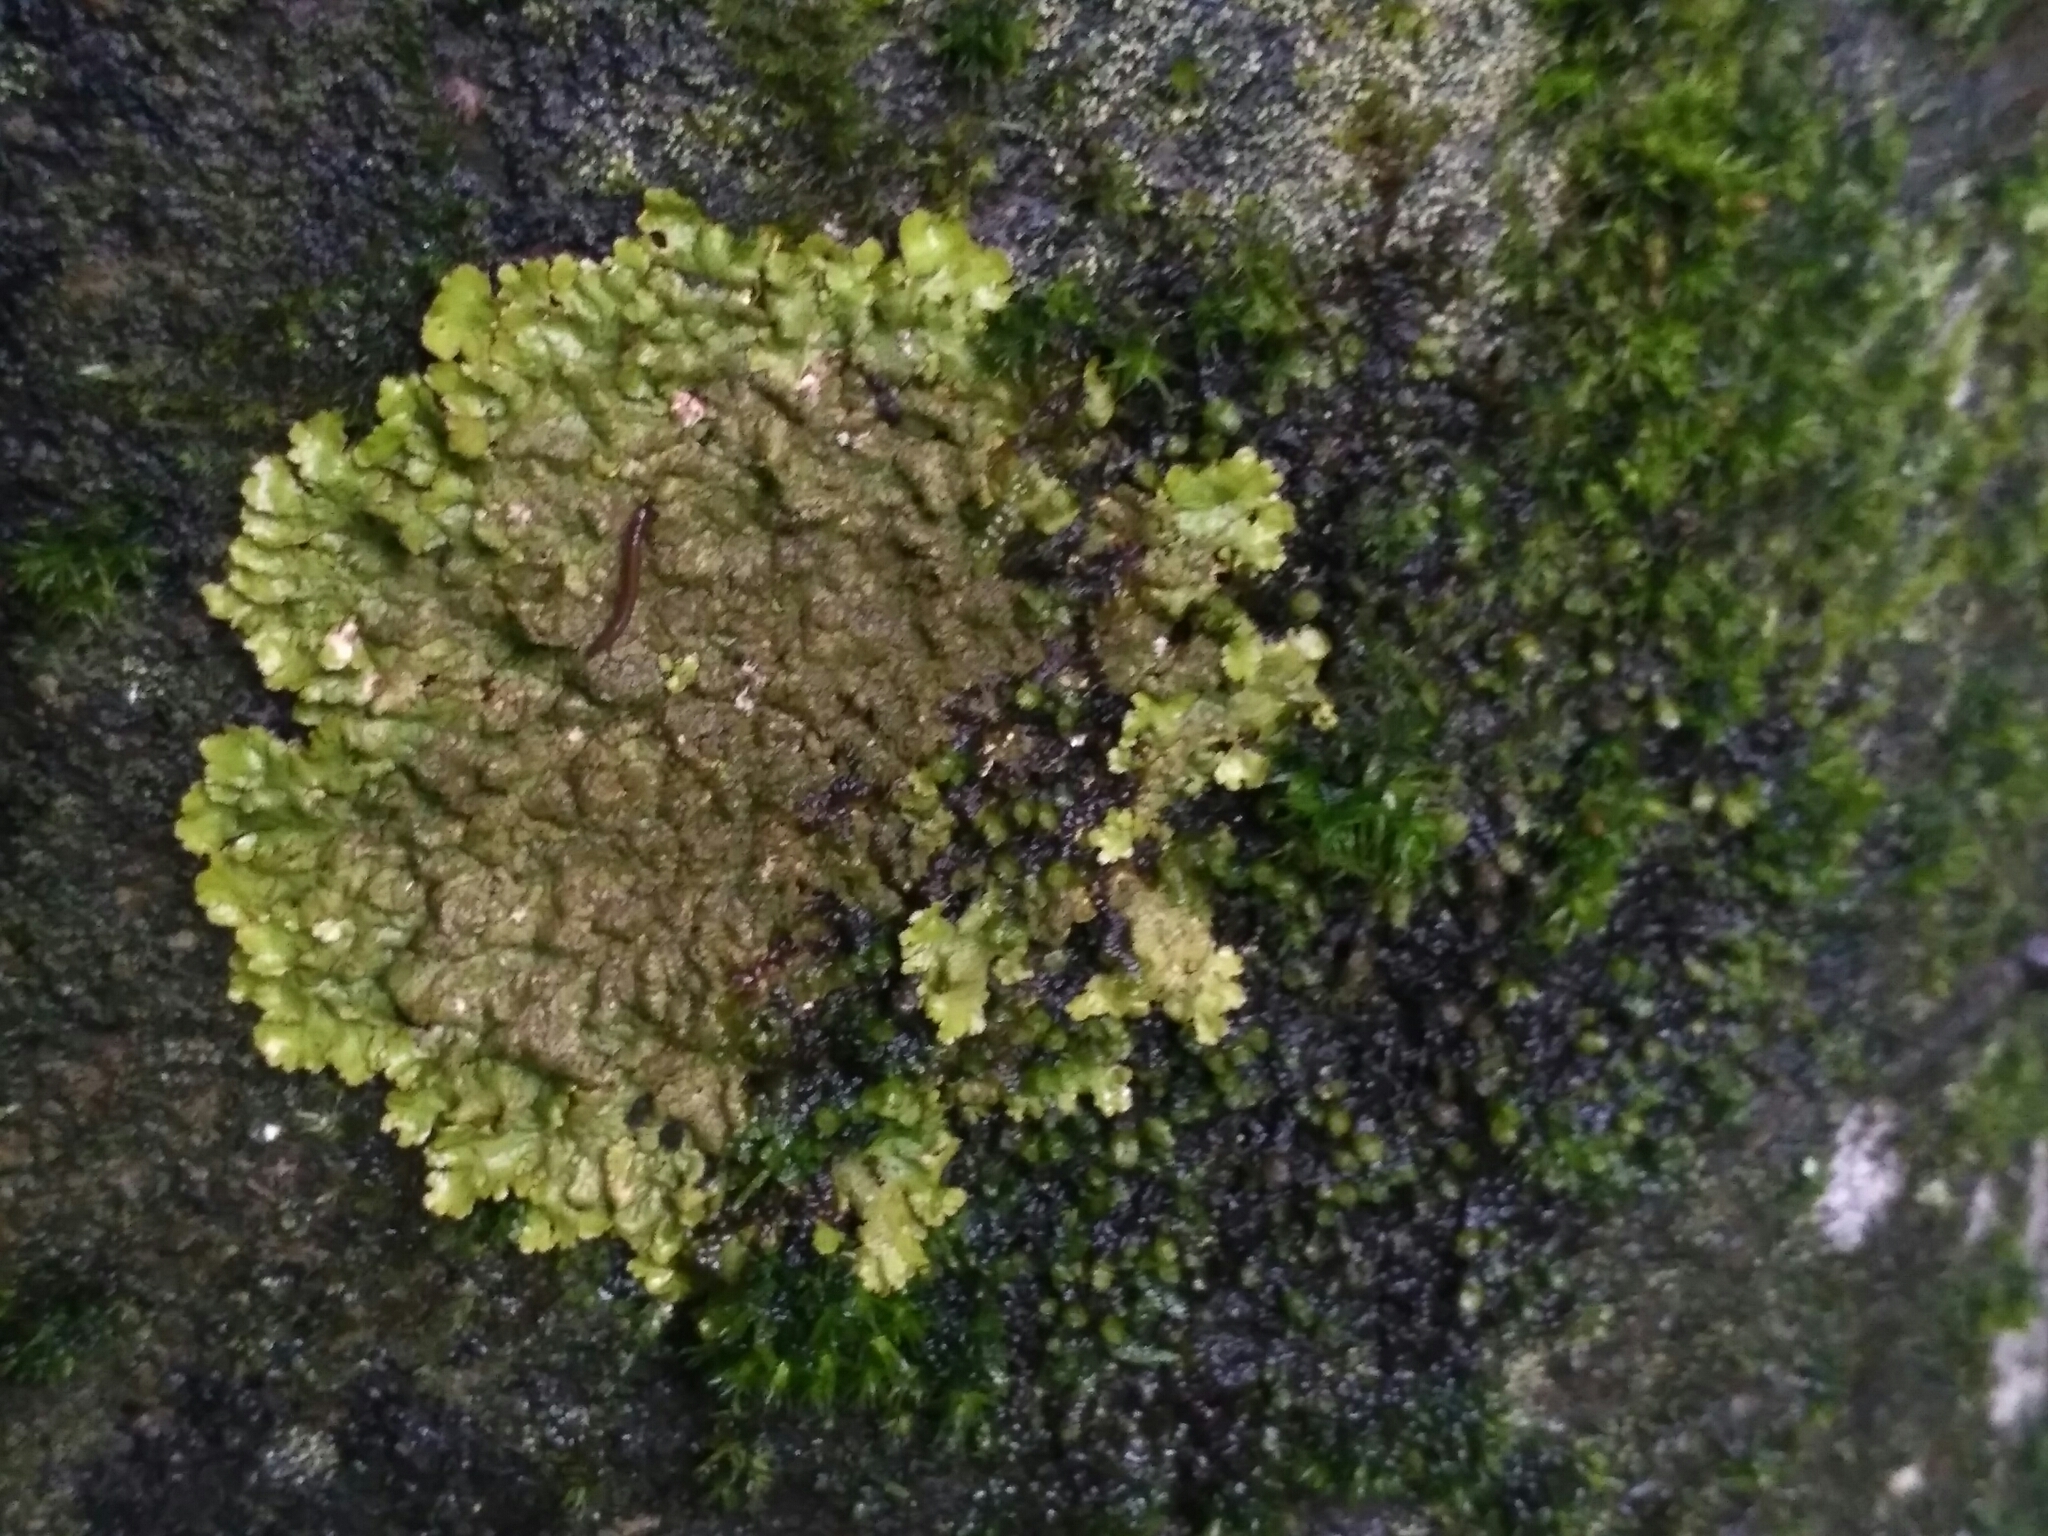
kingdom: Fungi
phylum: Ascomycota
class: Lecanoromycetes
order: Lecanorales
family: Parmeliaceae
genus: Melanelixia
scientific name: Melanelixia glabratula
